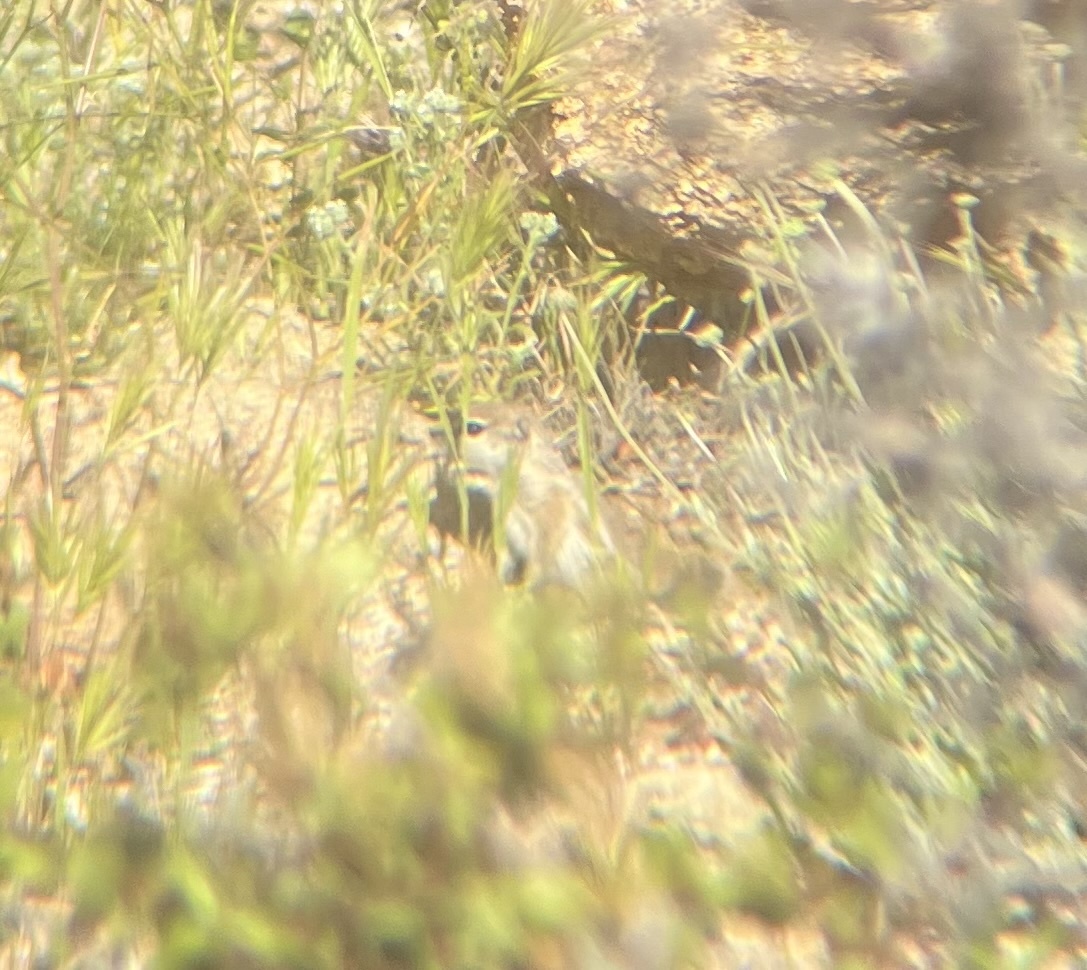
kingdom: Animalia
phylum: Chordata
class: Mammalia
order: Rodentia
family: Sciuridae
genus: Ammospermophilus
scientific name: Ammospermophilus leucurus
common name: White-tailed antelope squirrel
